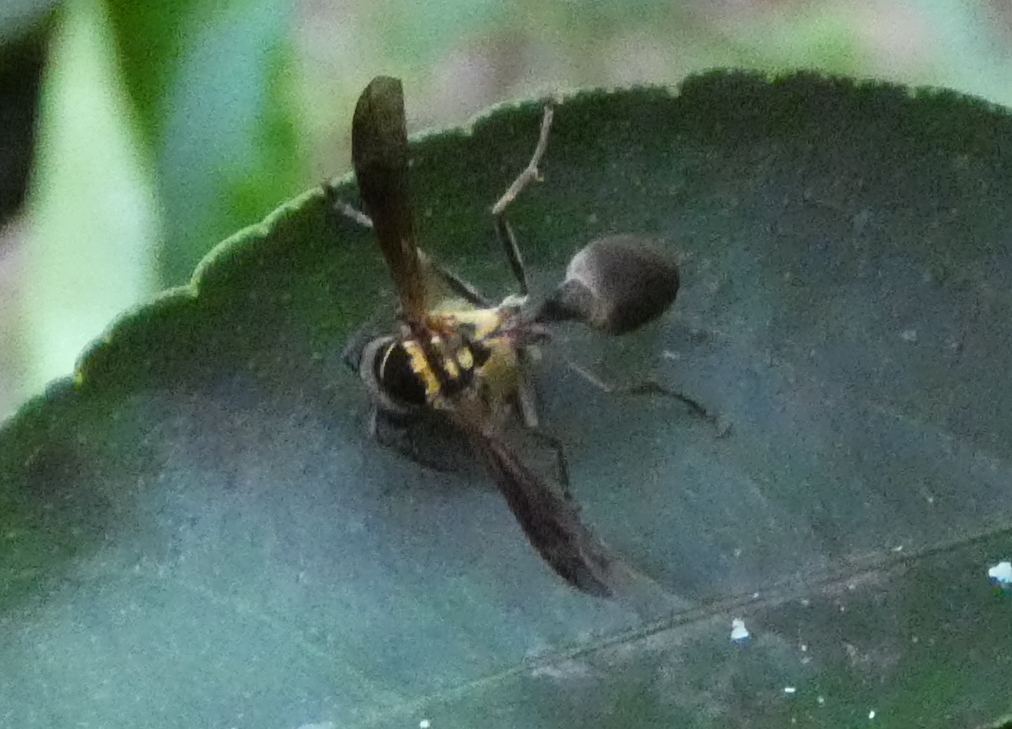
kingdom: Animalia
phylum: Arthropoda
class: Insecta
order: Hymenoptera
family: Eumenidae
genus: Polybia
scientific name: Polybia chrysothorax
